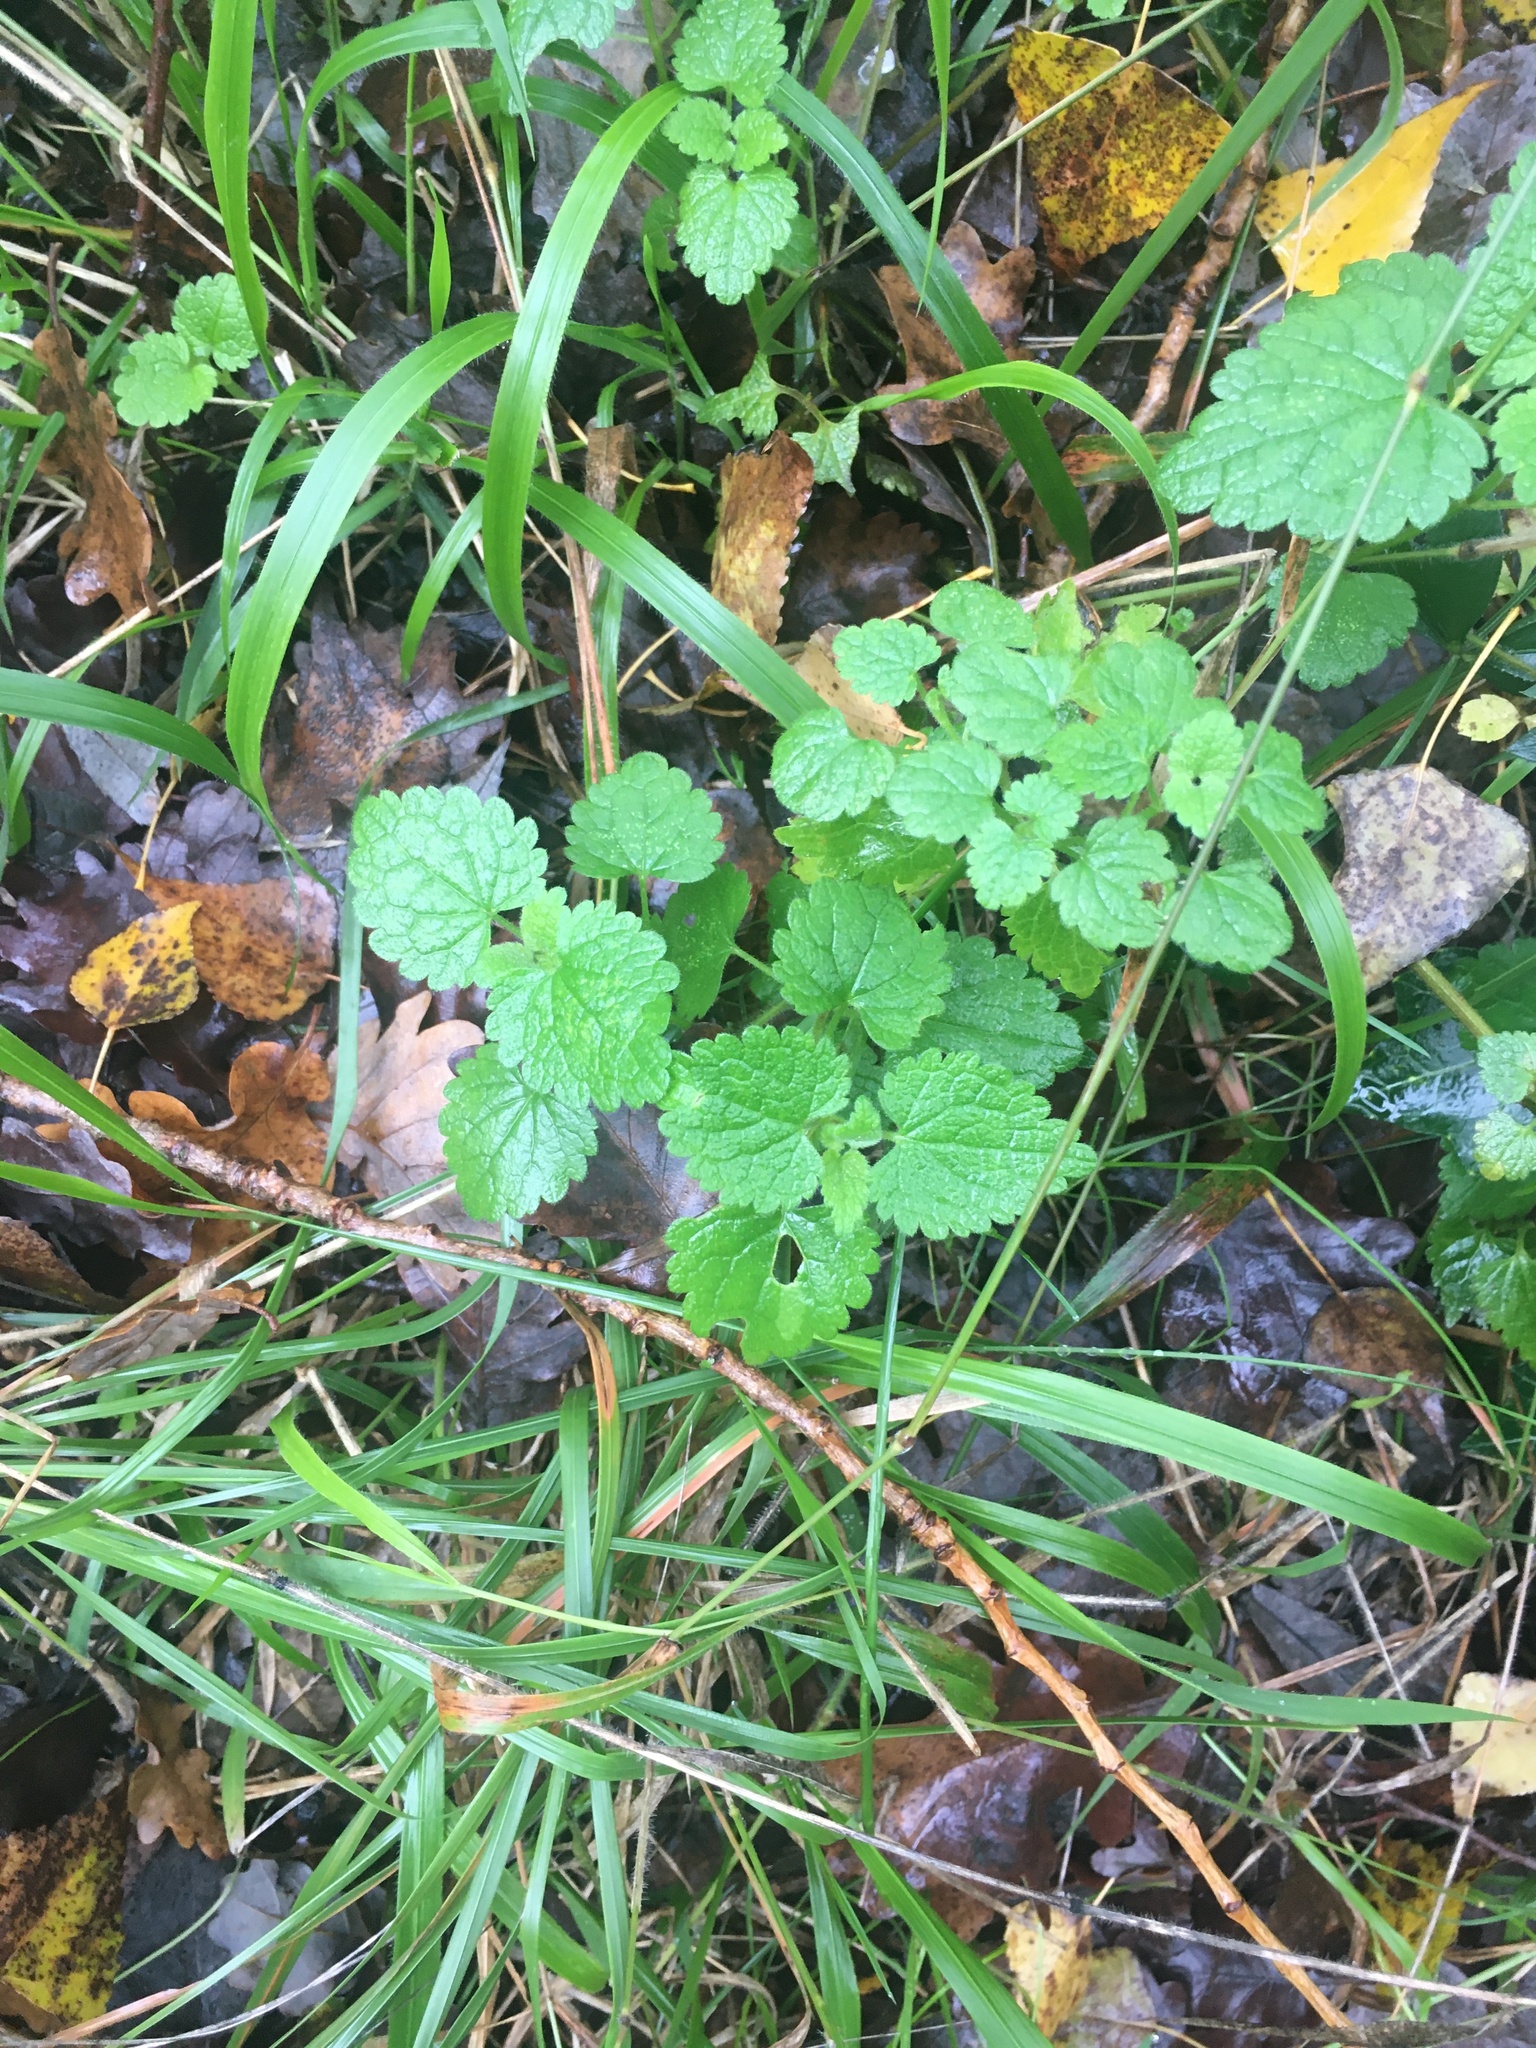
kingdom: Plantae
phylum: Tracheophyta
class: Magnoliopsida
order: Lamiales
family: Lamiaceae
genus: Melissa
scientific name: Melissa officinalis
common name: Balm
